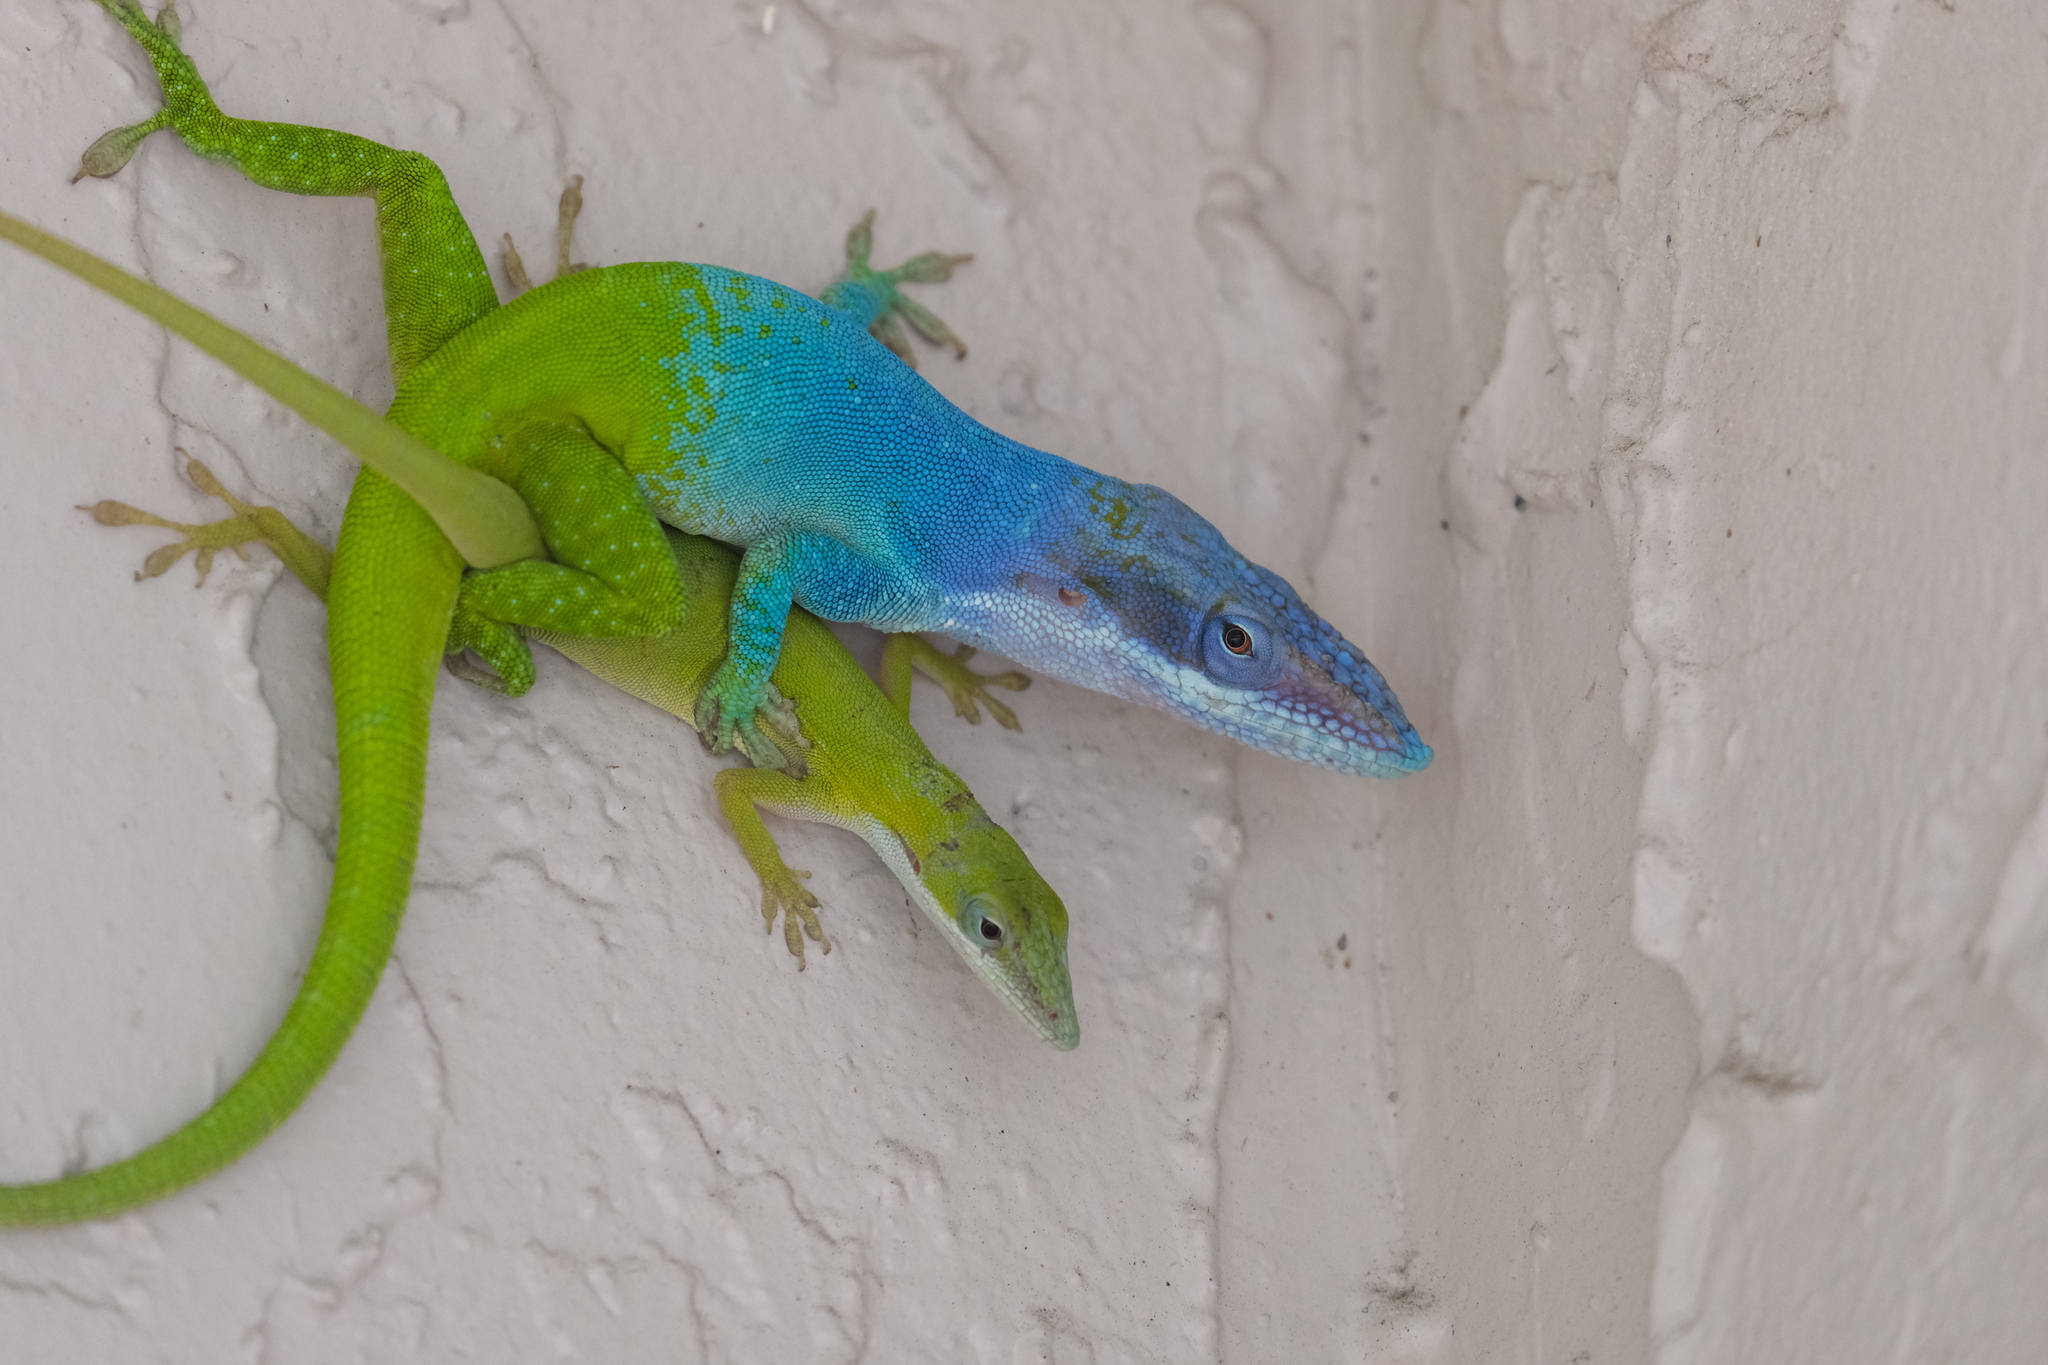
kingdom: Animalia
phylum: Chordata
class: Squamata
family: Dactyloidae
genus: Anolis
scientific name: Anolis allisoni
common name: Allison's anole
